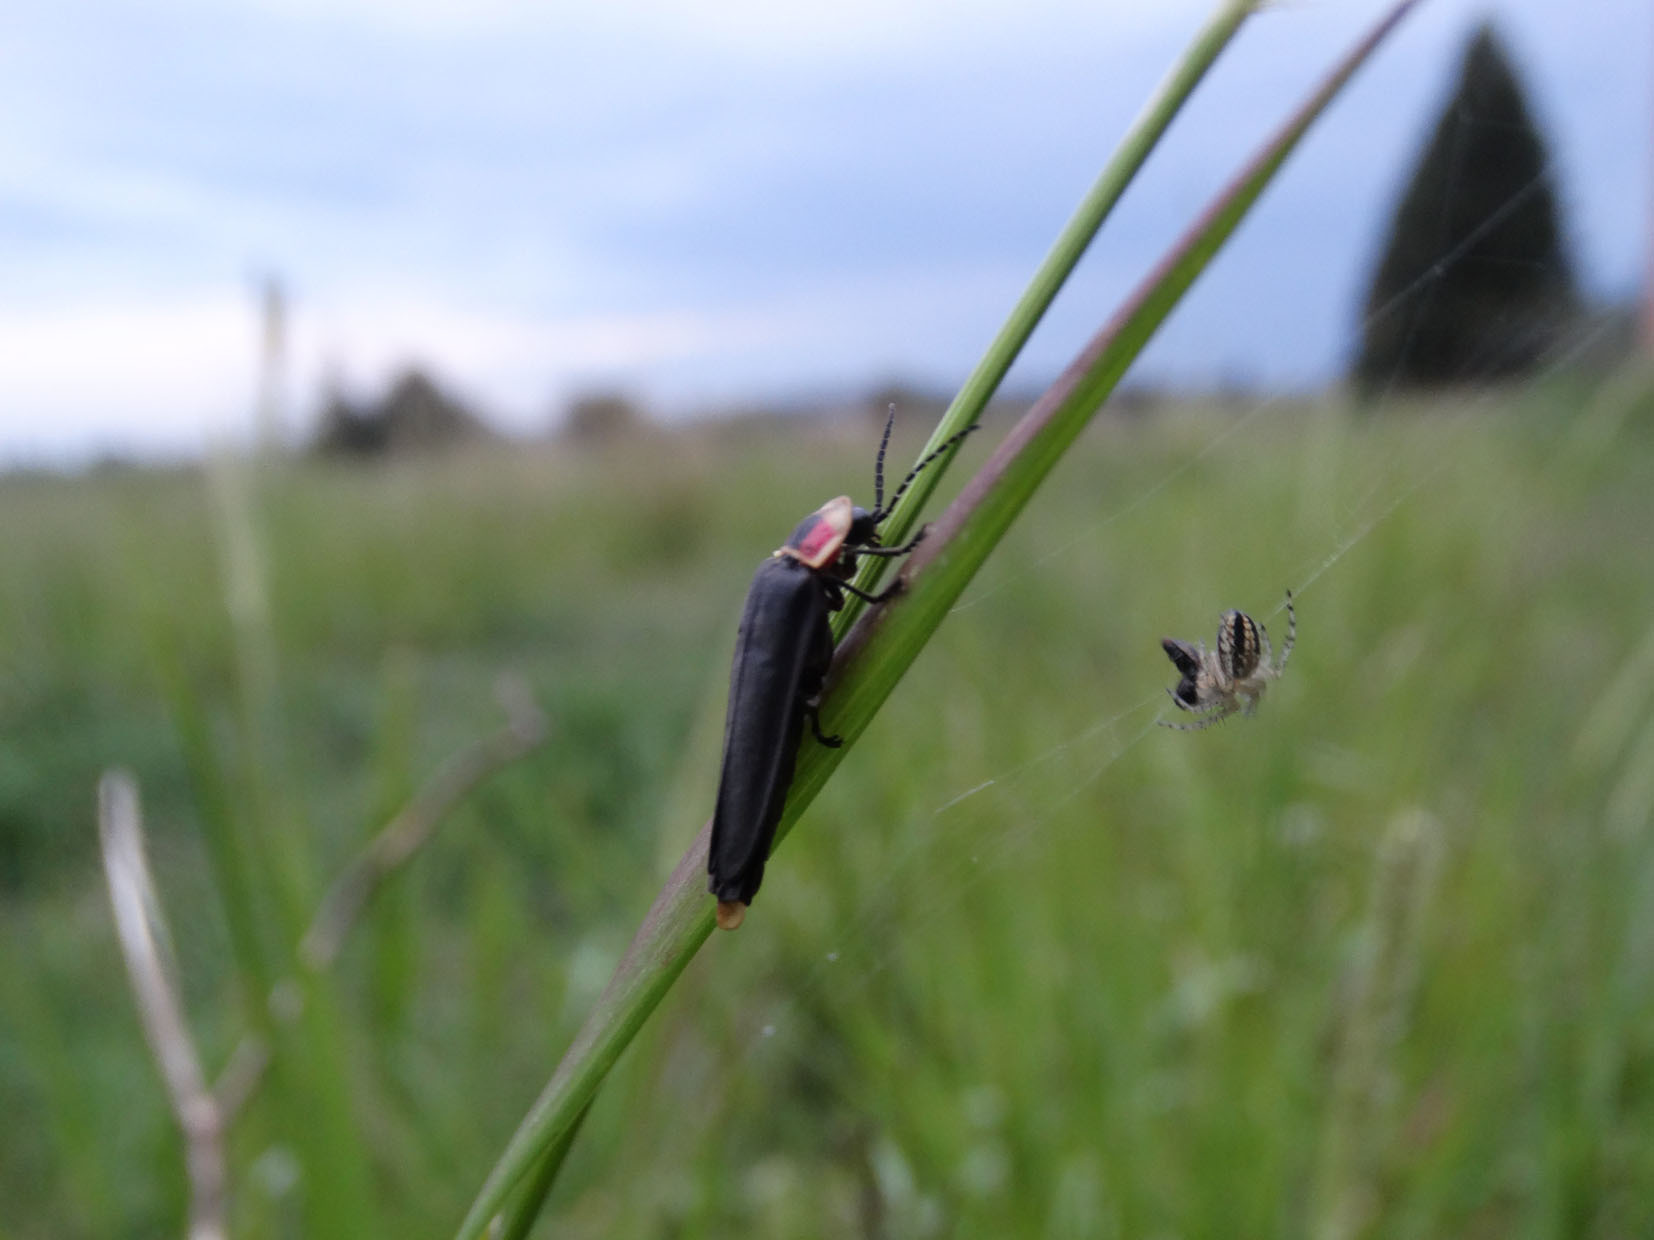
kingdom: Animalia
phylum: Arthropoda
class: Insecta
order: Coleoptera
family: Lampyridae
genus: Photinus
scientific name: Photinus extensus
